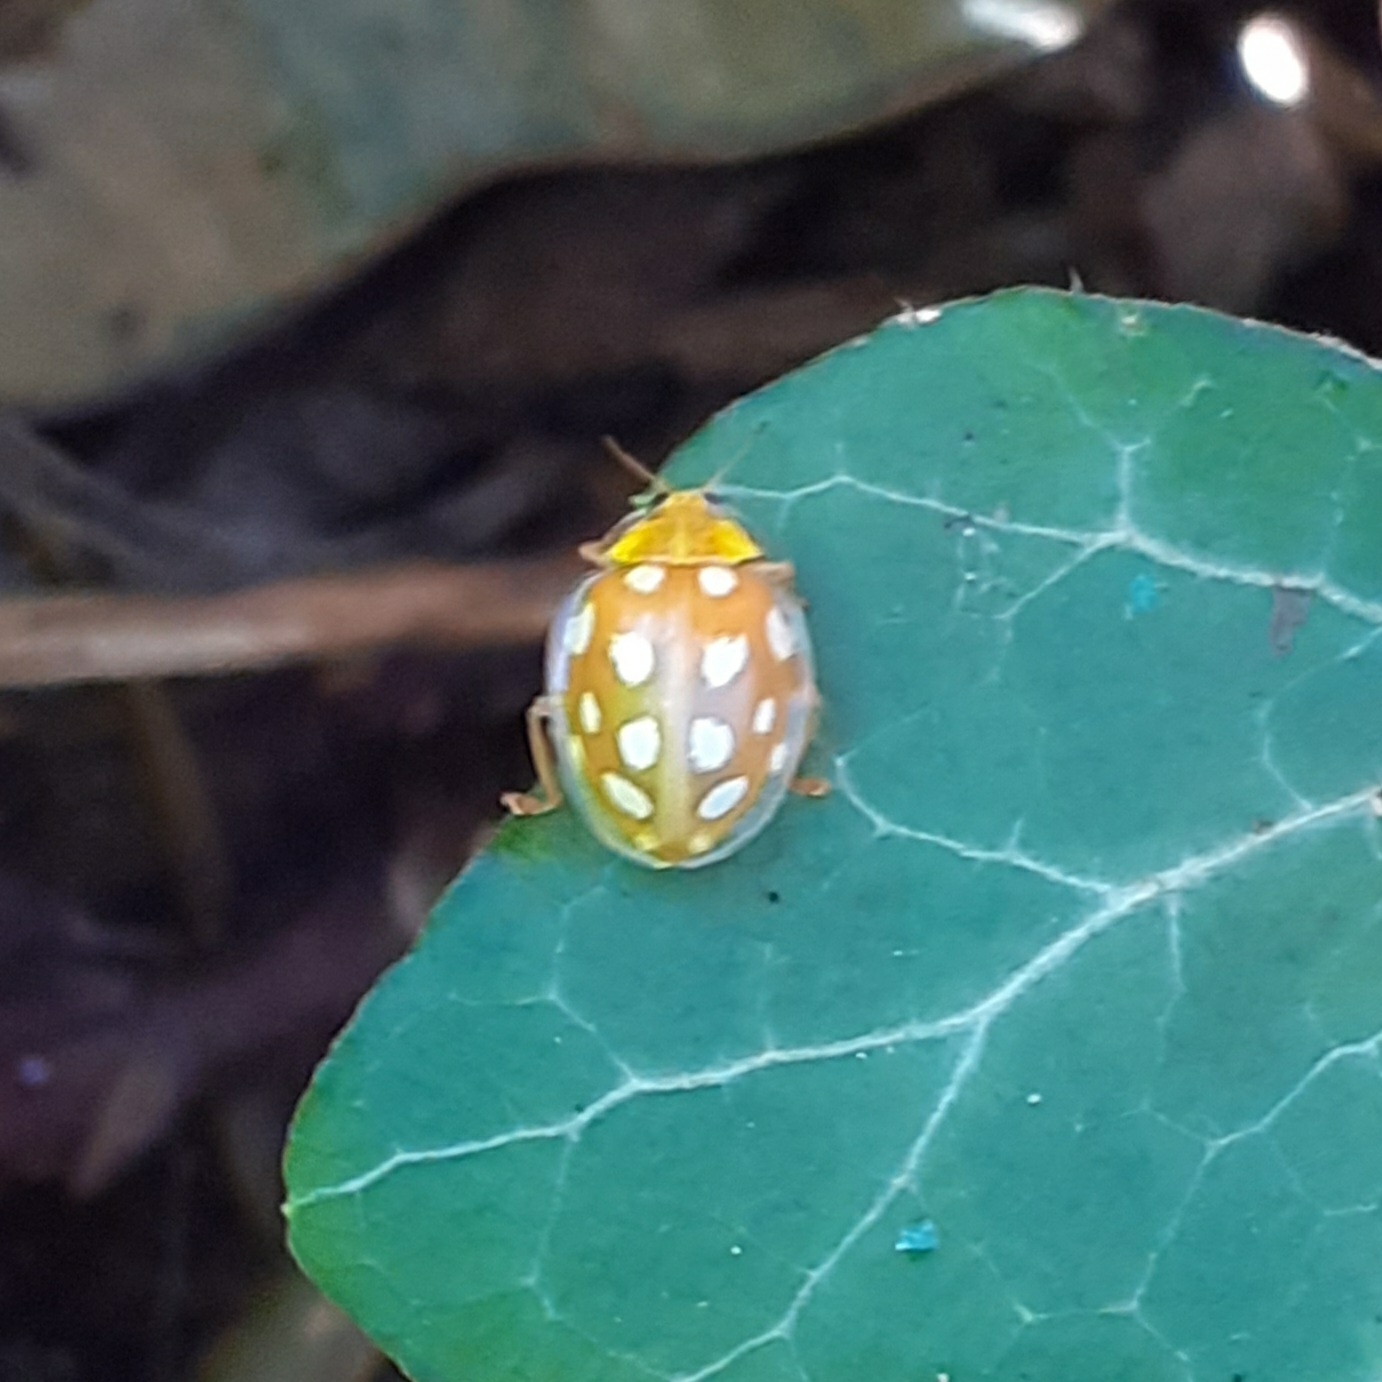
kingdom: Animalia
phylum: Arthropoda
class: Insecta
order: Coleoptera
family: Coccinellidae
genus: Halyzia
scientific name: Halyzia sedecimguttata
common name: Orange ladybird
